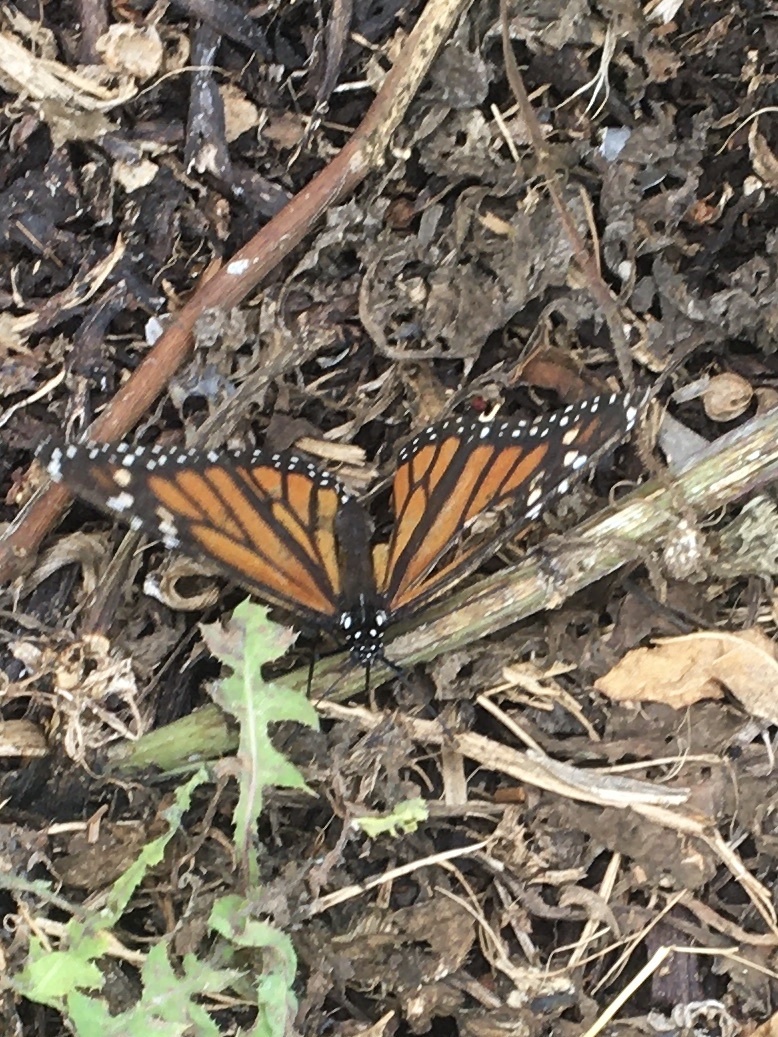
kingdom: Animalia
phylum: Arthropoda
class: Insecta
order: Lepidoptera
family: Nymphalidae
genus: Danaus
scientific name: Danaus plexippus
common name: Monarch
